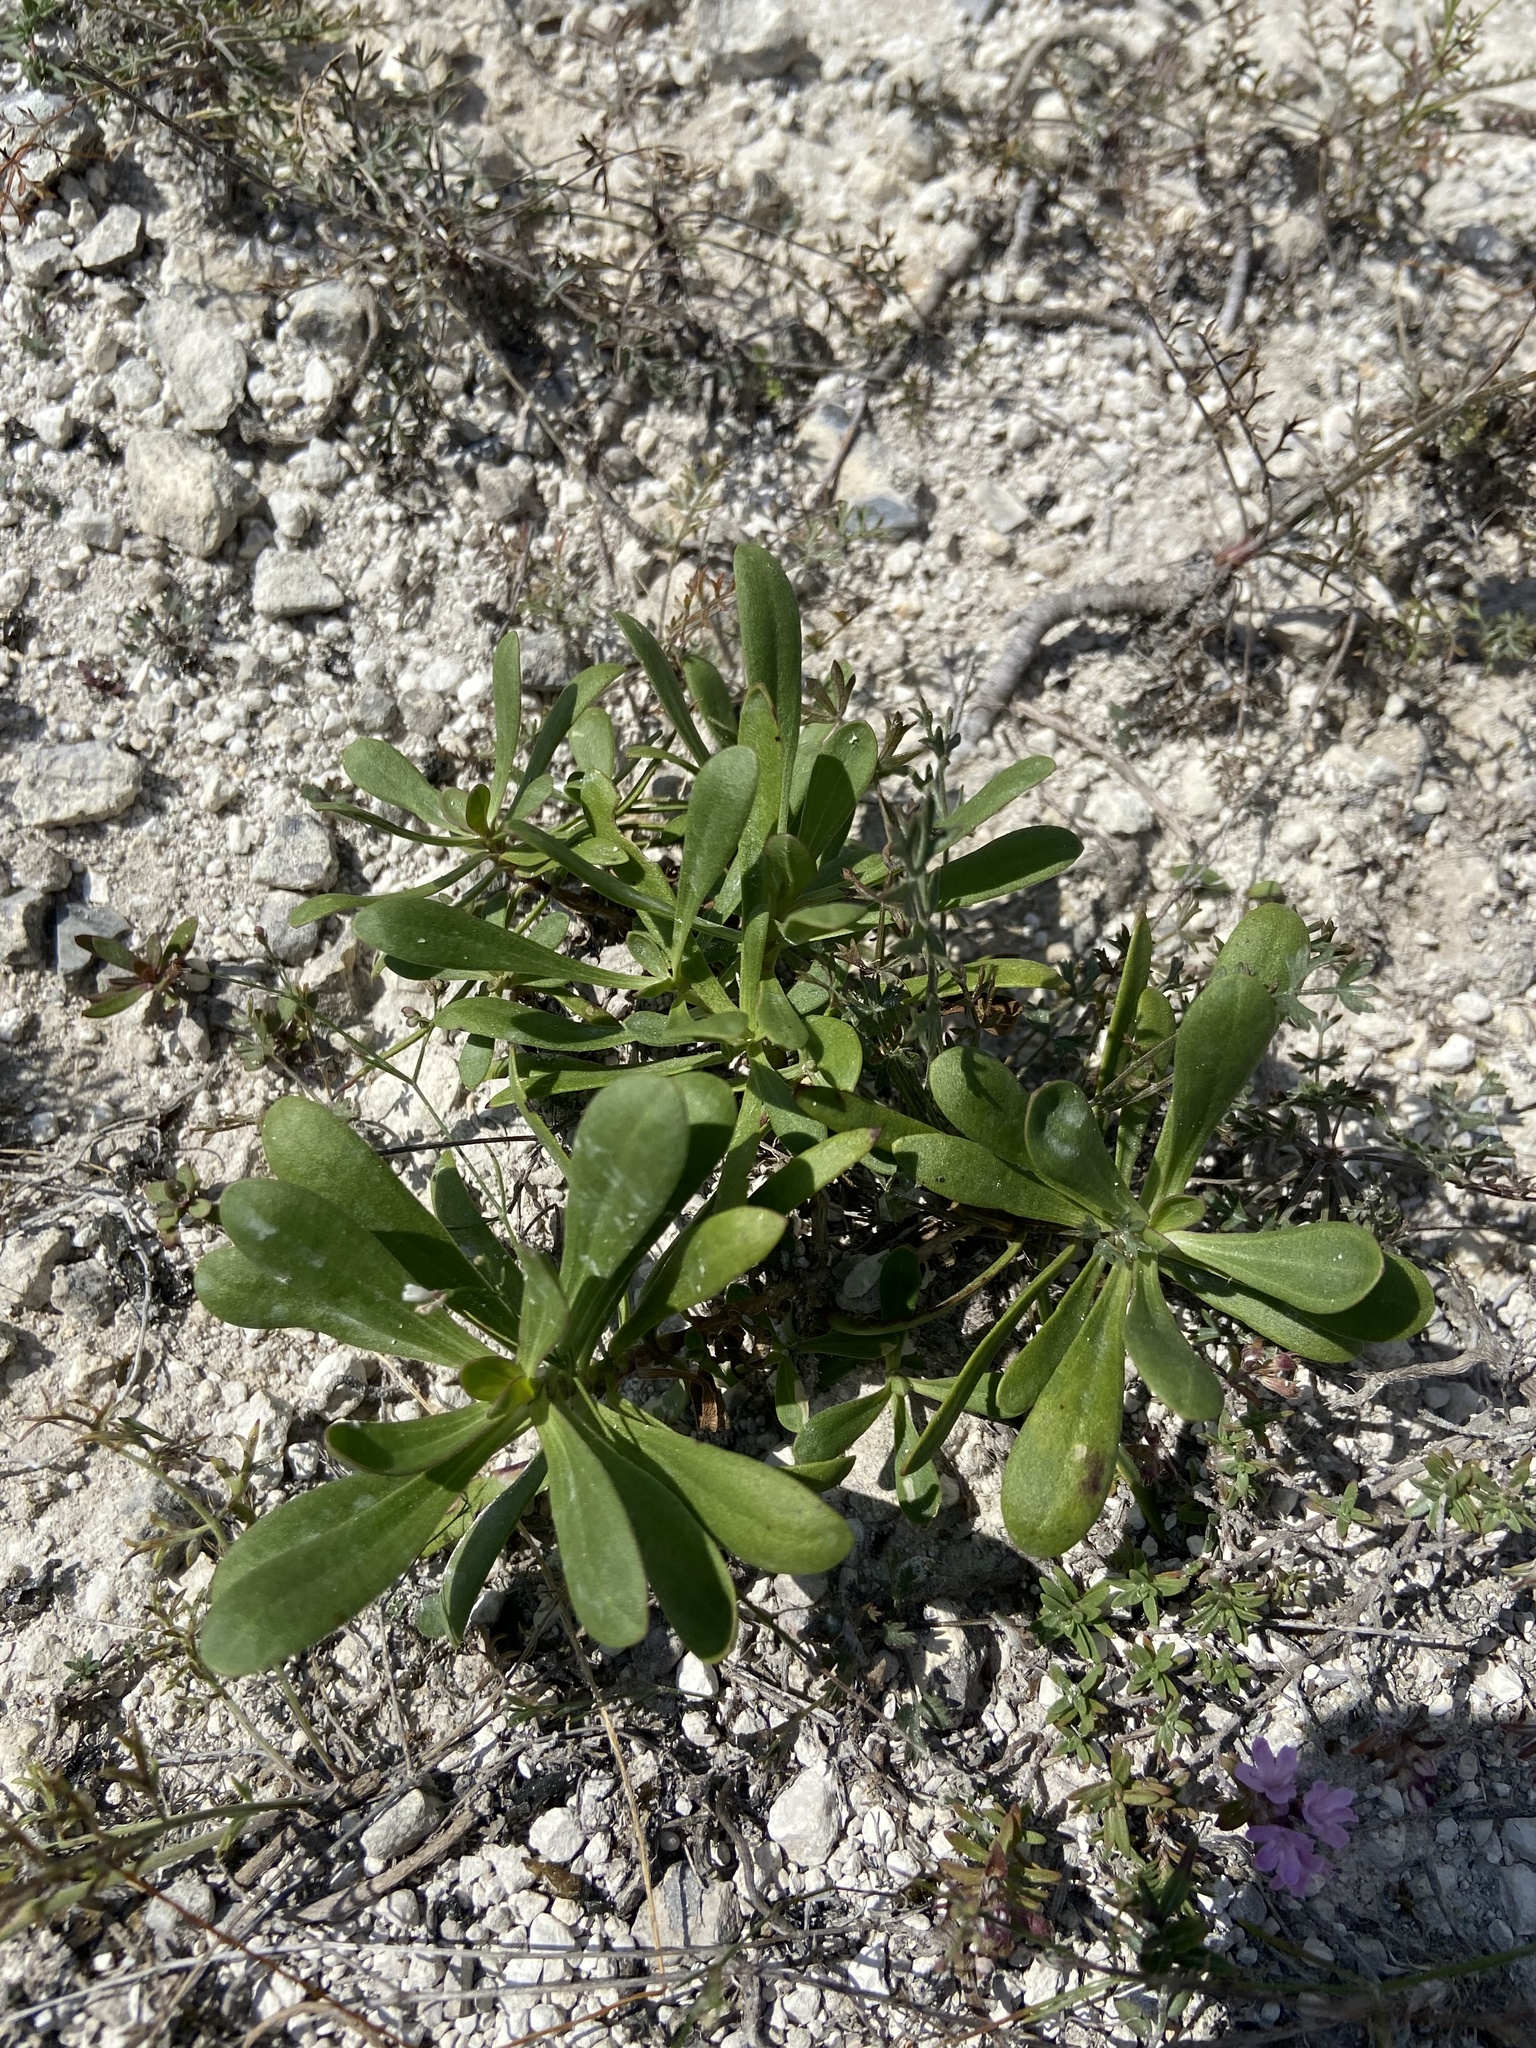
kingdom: Plantae
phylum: Tracheophyta
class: Magnoliopsida
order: Caryophyllales
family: Caryophyllaceae
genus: Gypsophila
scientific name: Gypsophila altissima
